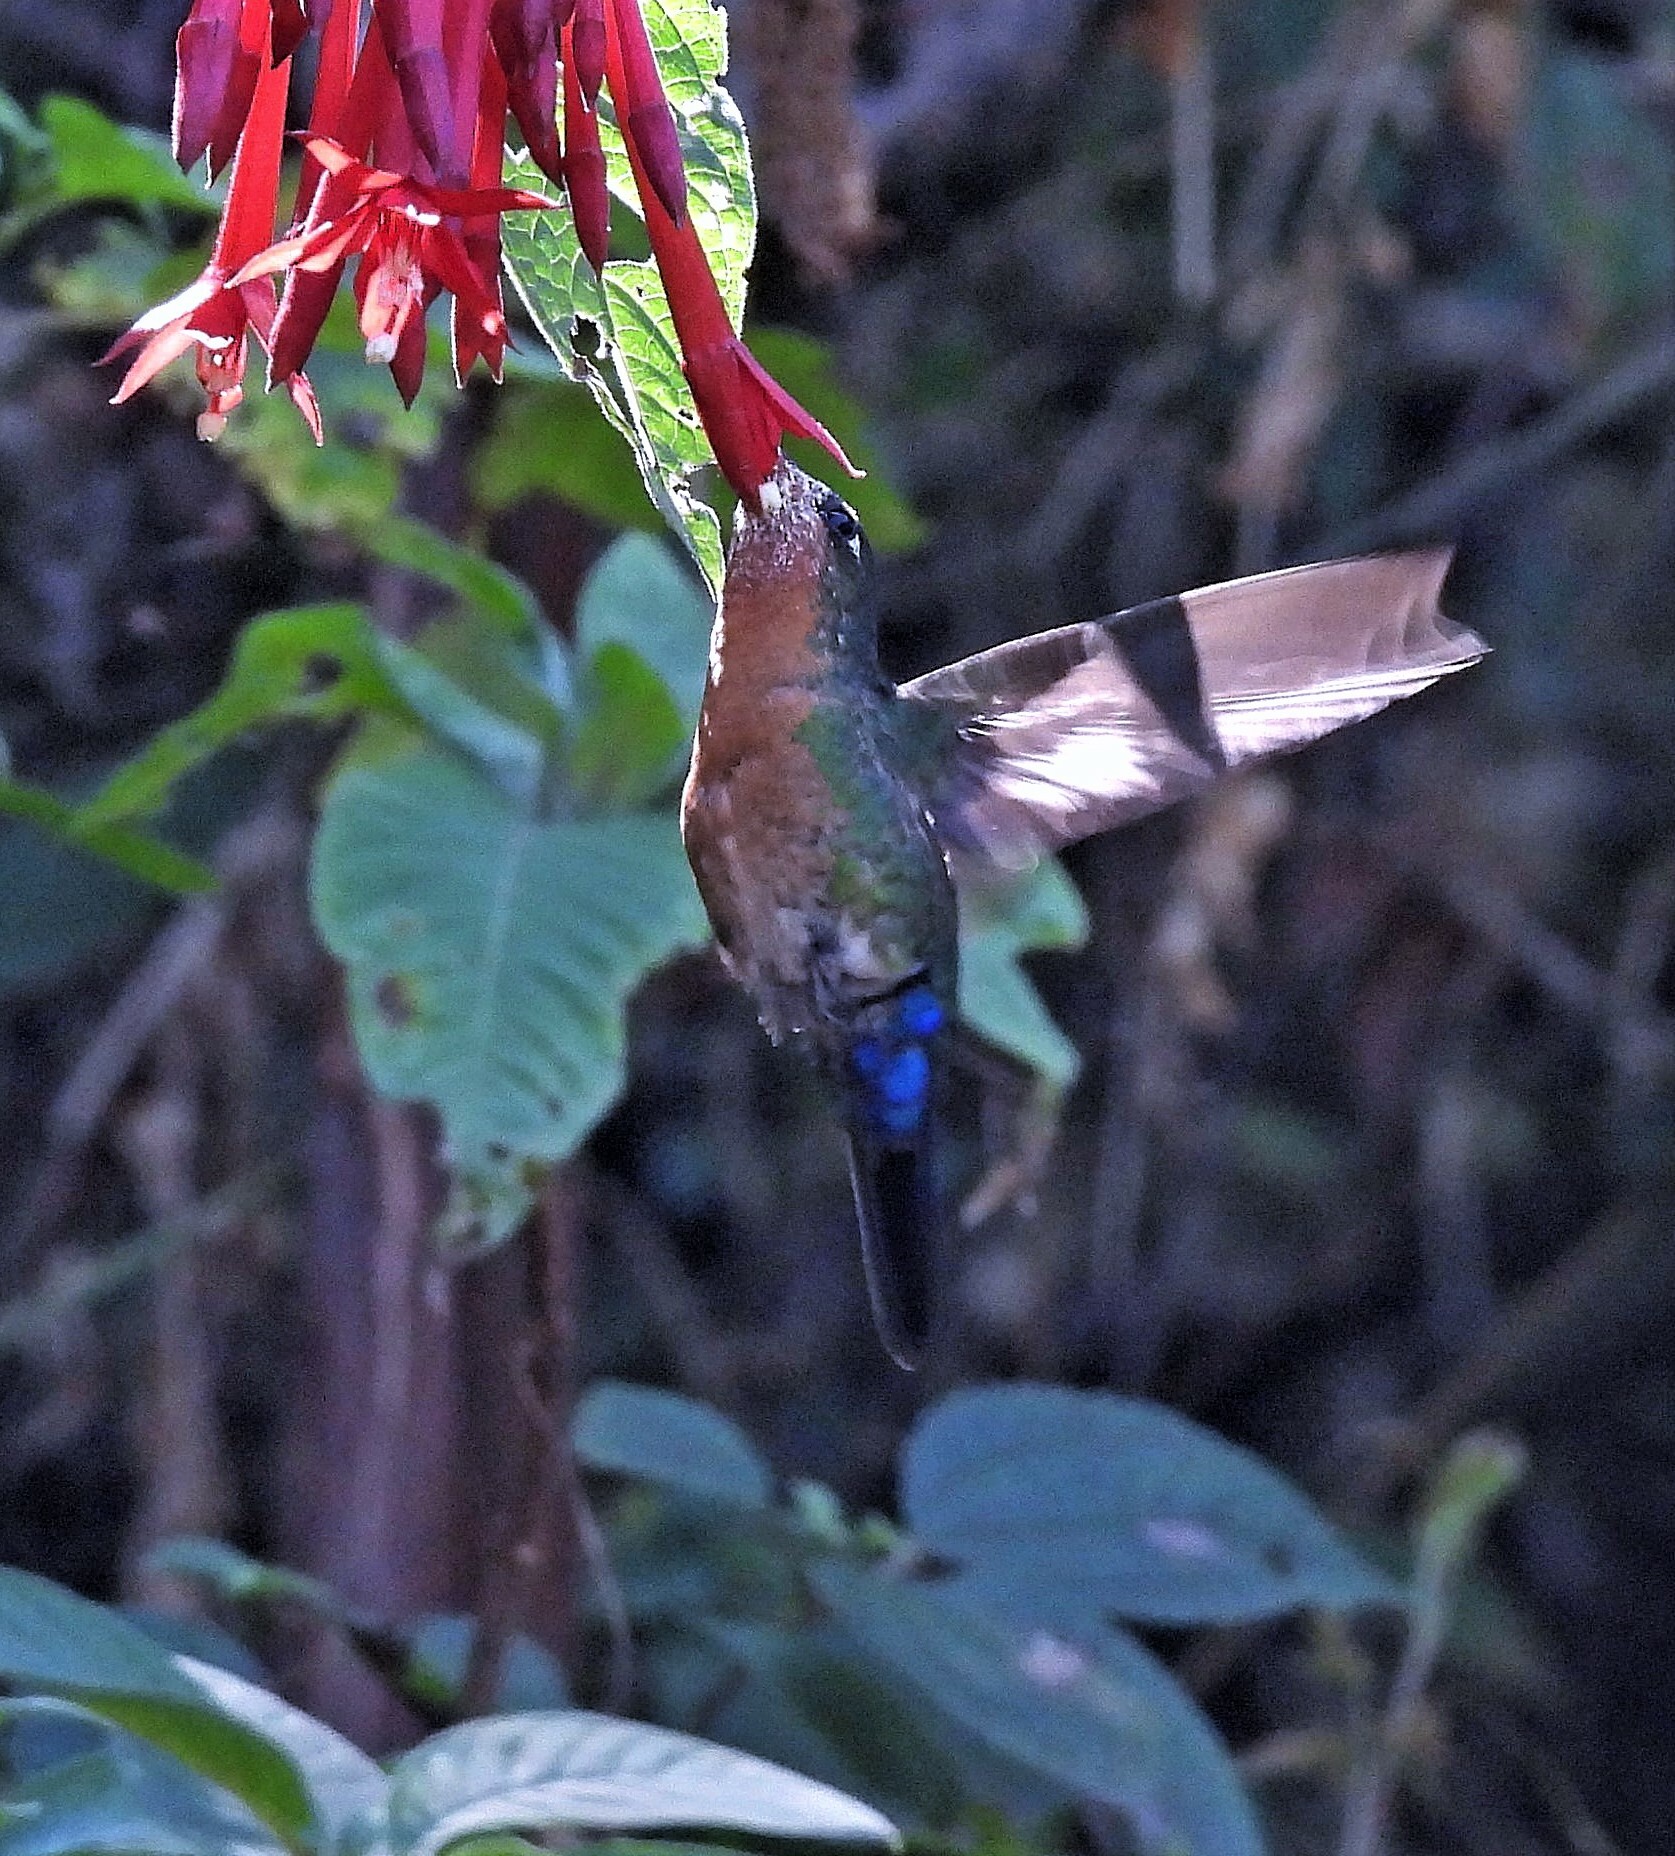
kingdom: Animalia
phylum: Chordata
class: Aves
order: Apodiformes
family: Trochilidae
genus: Eriocnemis
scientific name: Eriocnemis glaucopoides
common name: Blue-capped puffleg
